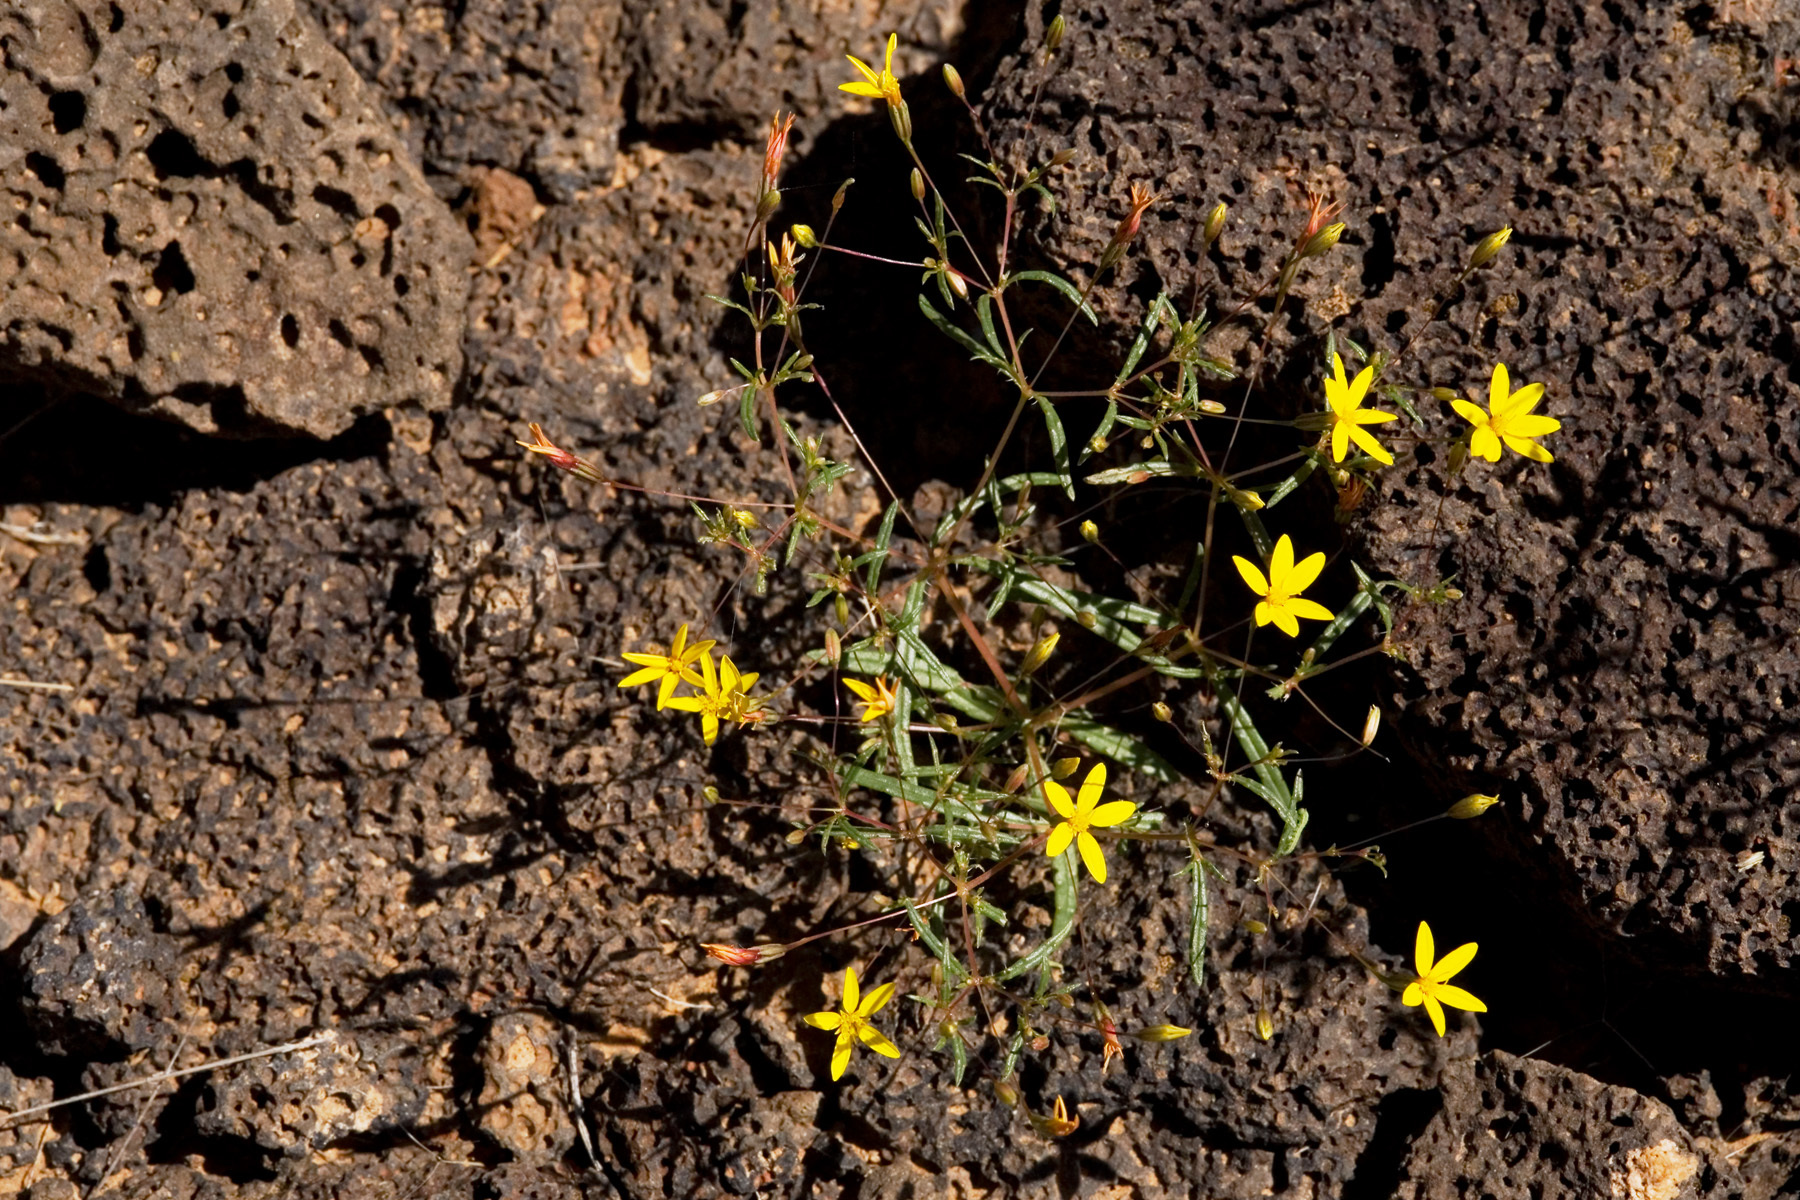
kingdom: Plantae
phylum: Tracheophyta
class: Magnoliopsida
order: Asterales
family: Asteraceae
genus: Pectis
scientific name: Pectis filipes
